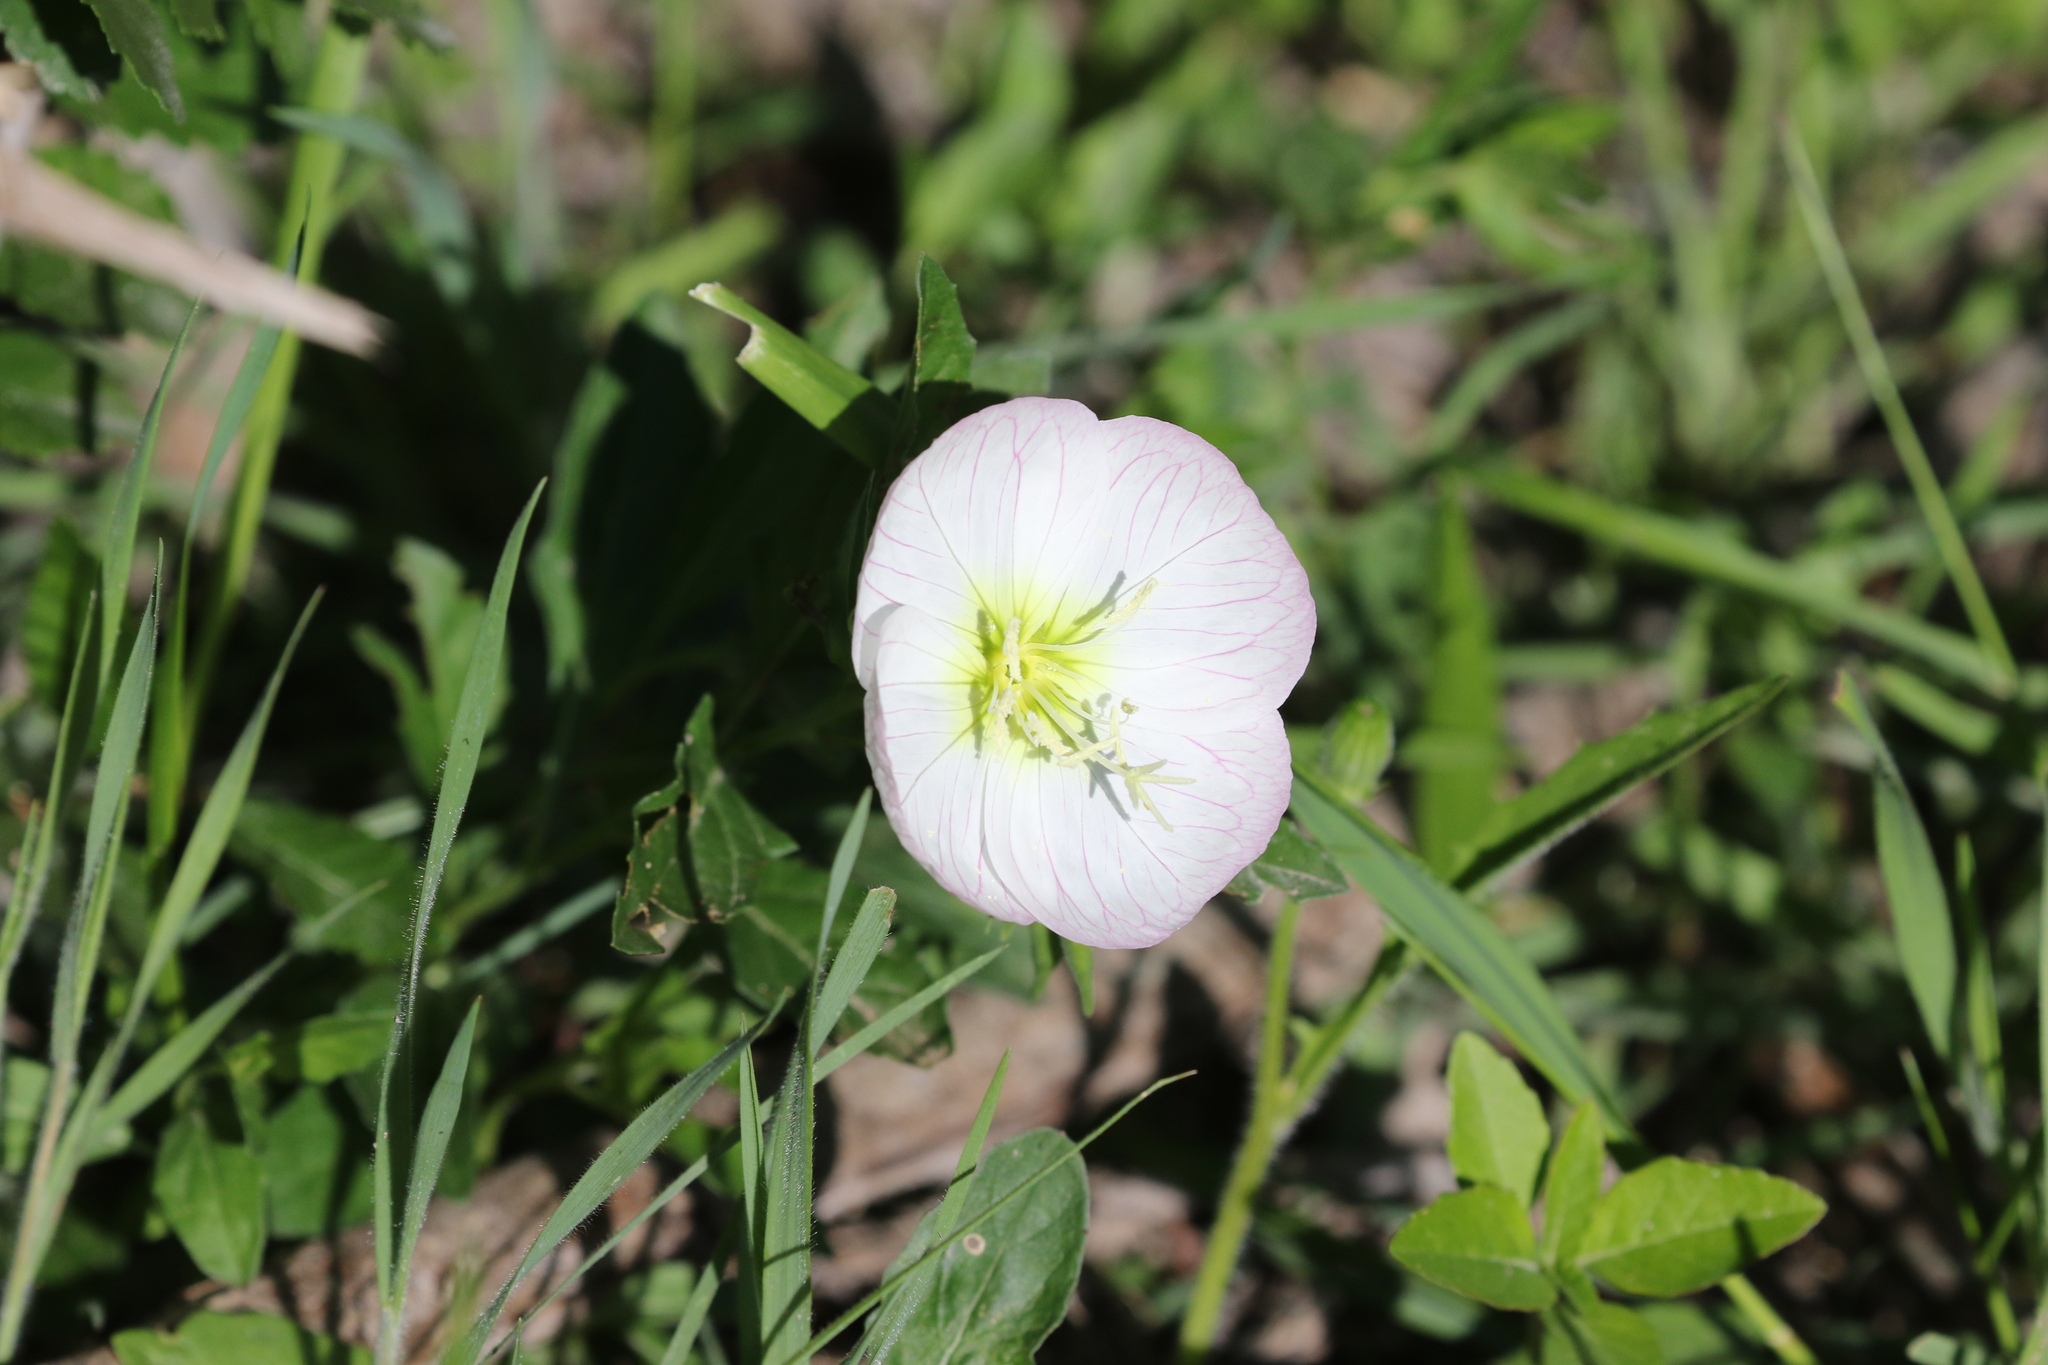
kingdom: Plantae
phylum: Tracheophyta
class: Magnoliopsida
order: Myrtales
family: Onagraceae
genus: Oenothera
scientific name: Oenothera speciosa
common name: White evening-primrose
